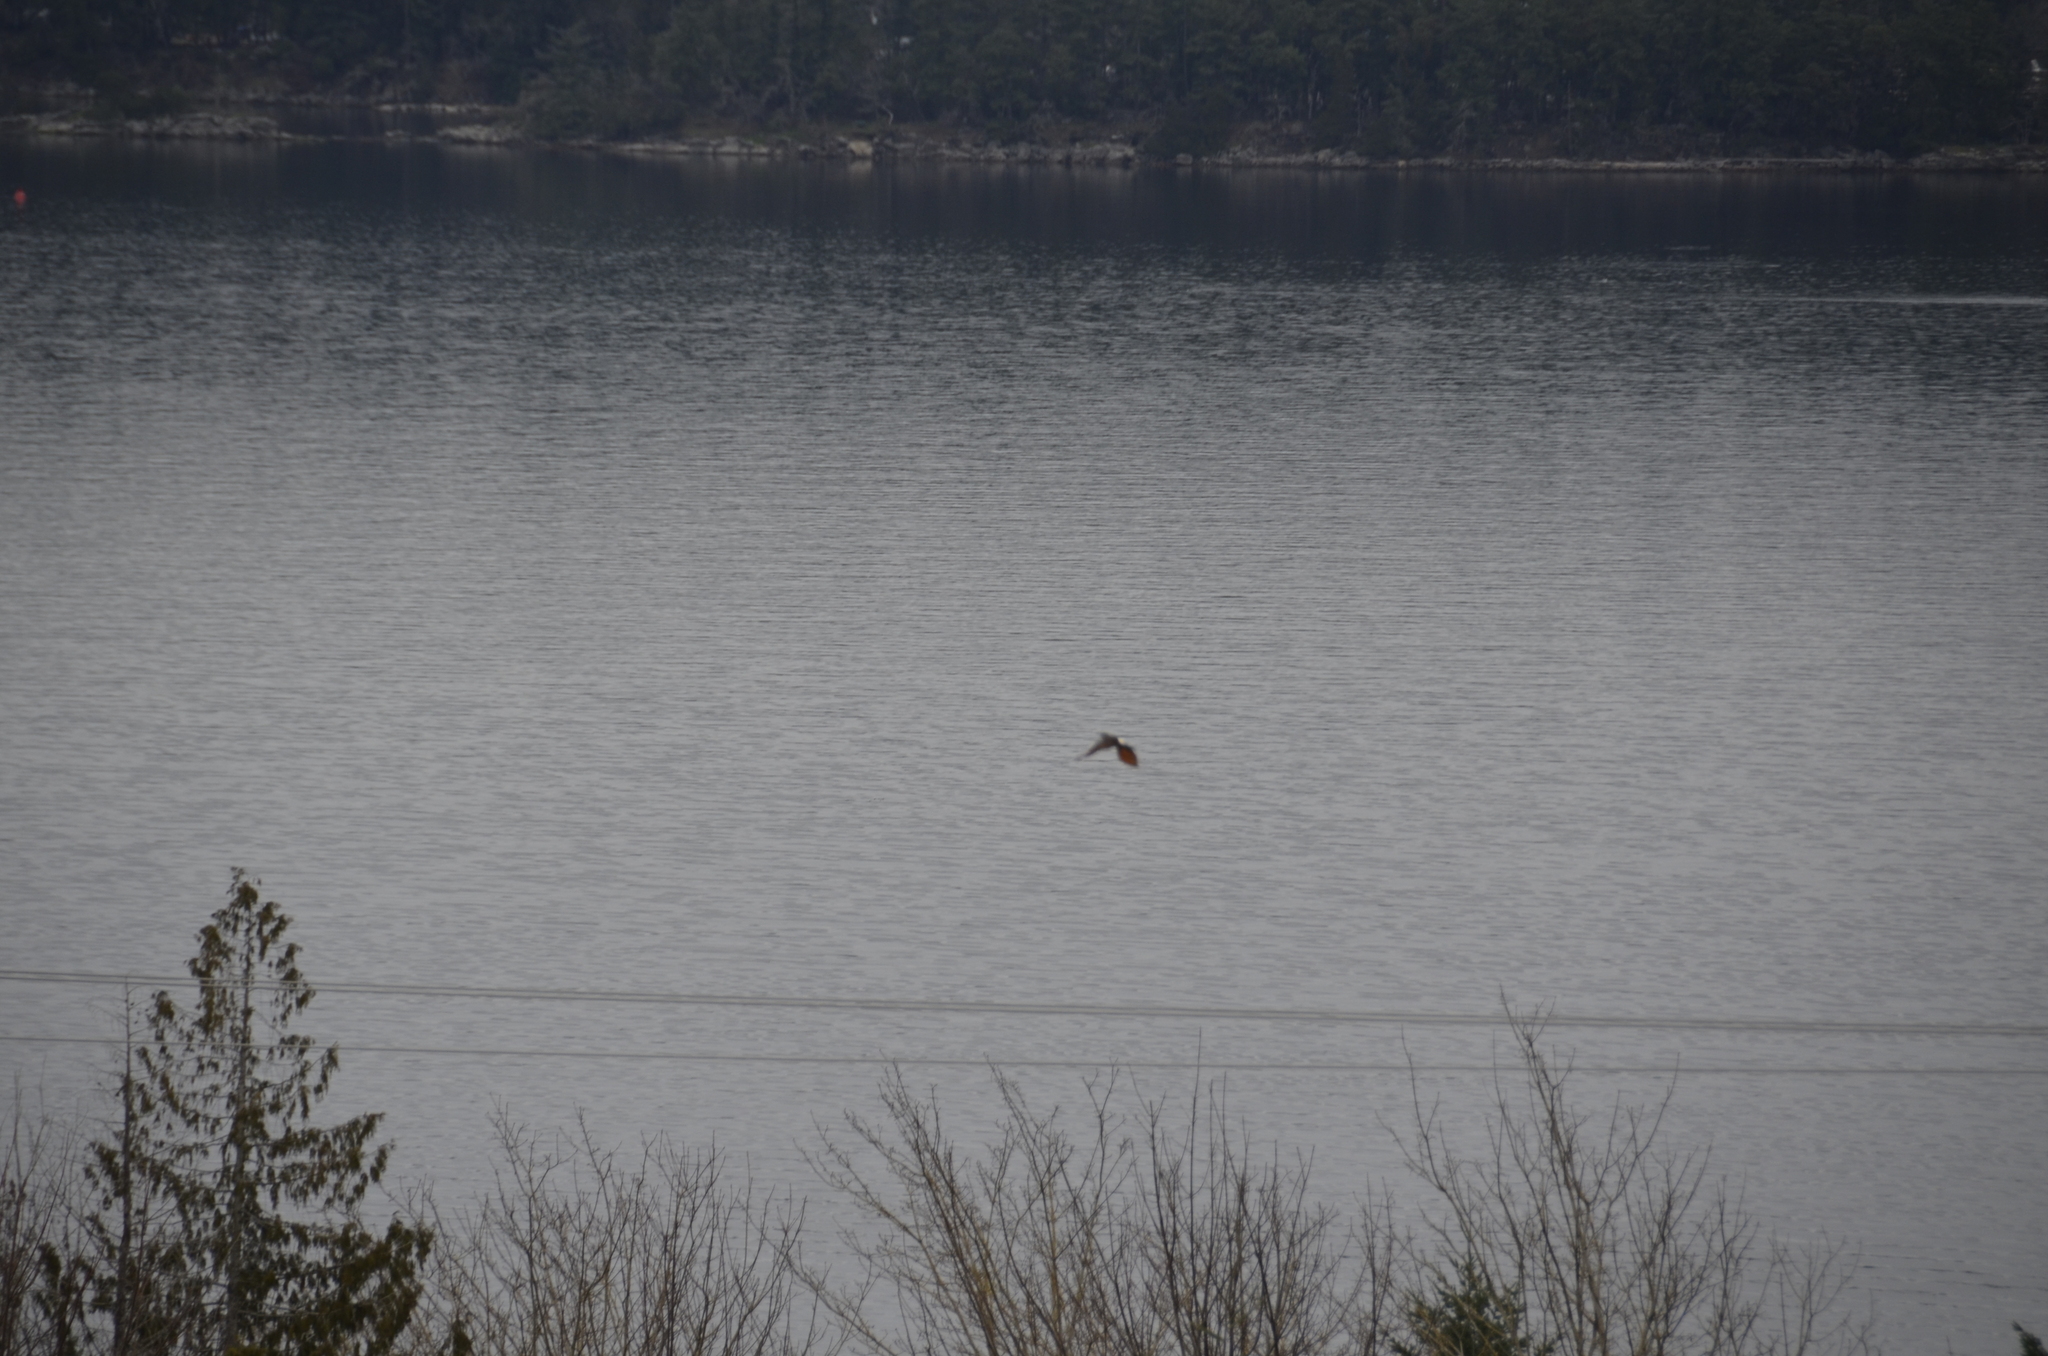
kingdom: Animalia
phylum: Chordata
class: Aves
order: Piciformes
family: Picidae
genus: Colaptes
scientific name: Colaptes auratus
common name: Northern flicker
